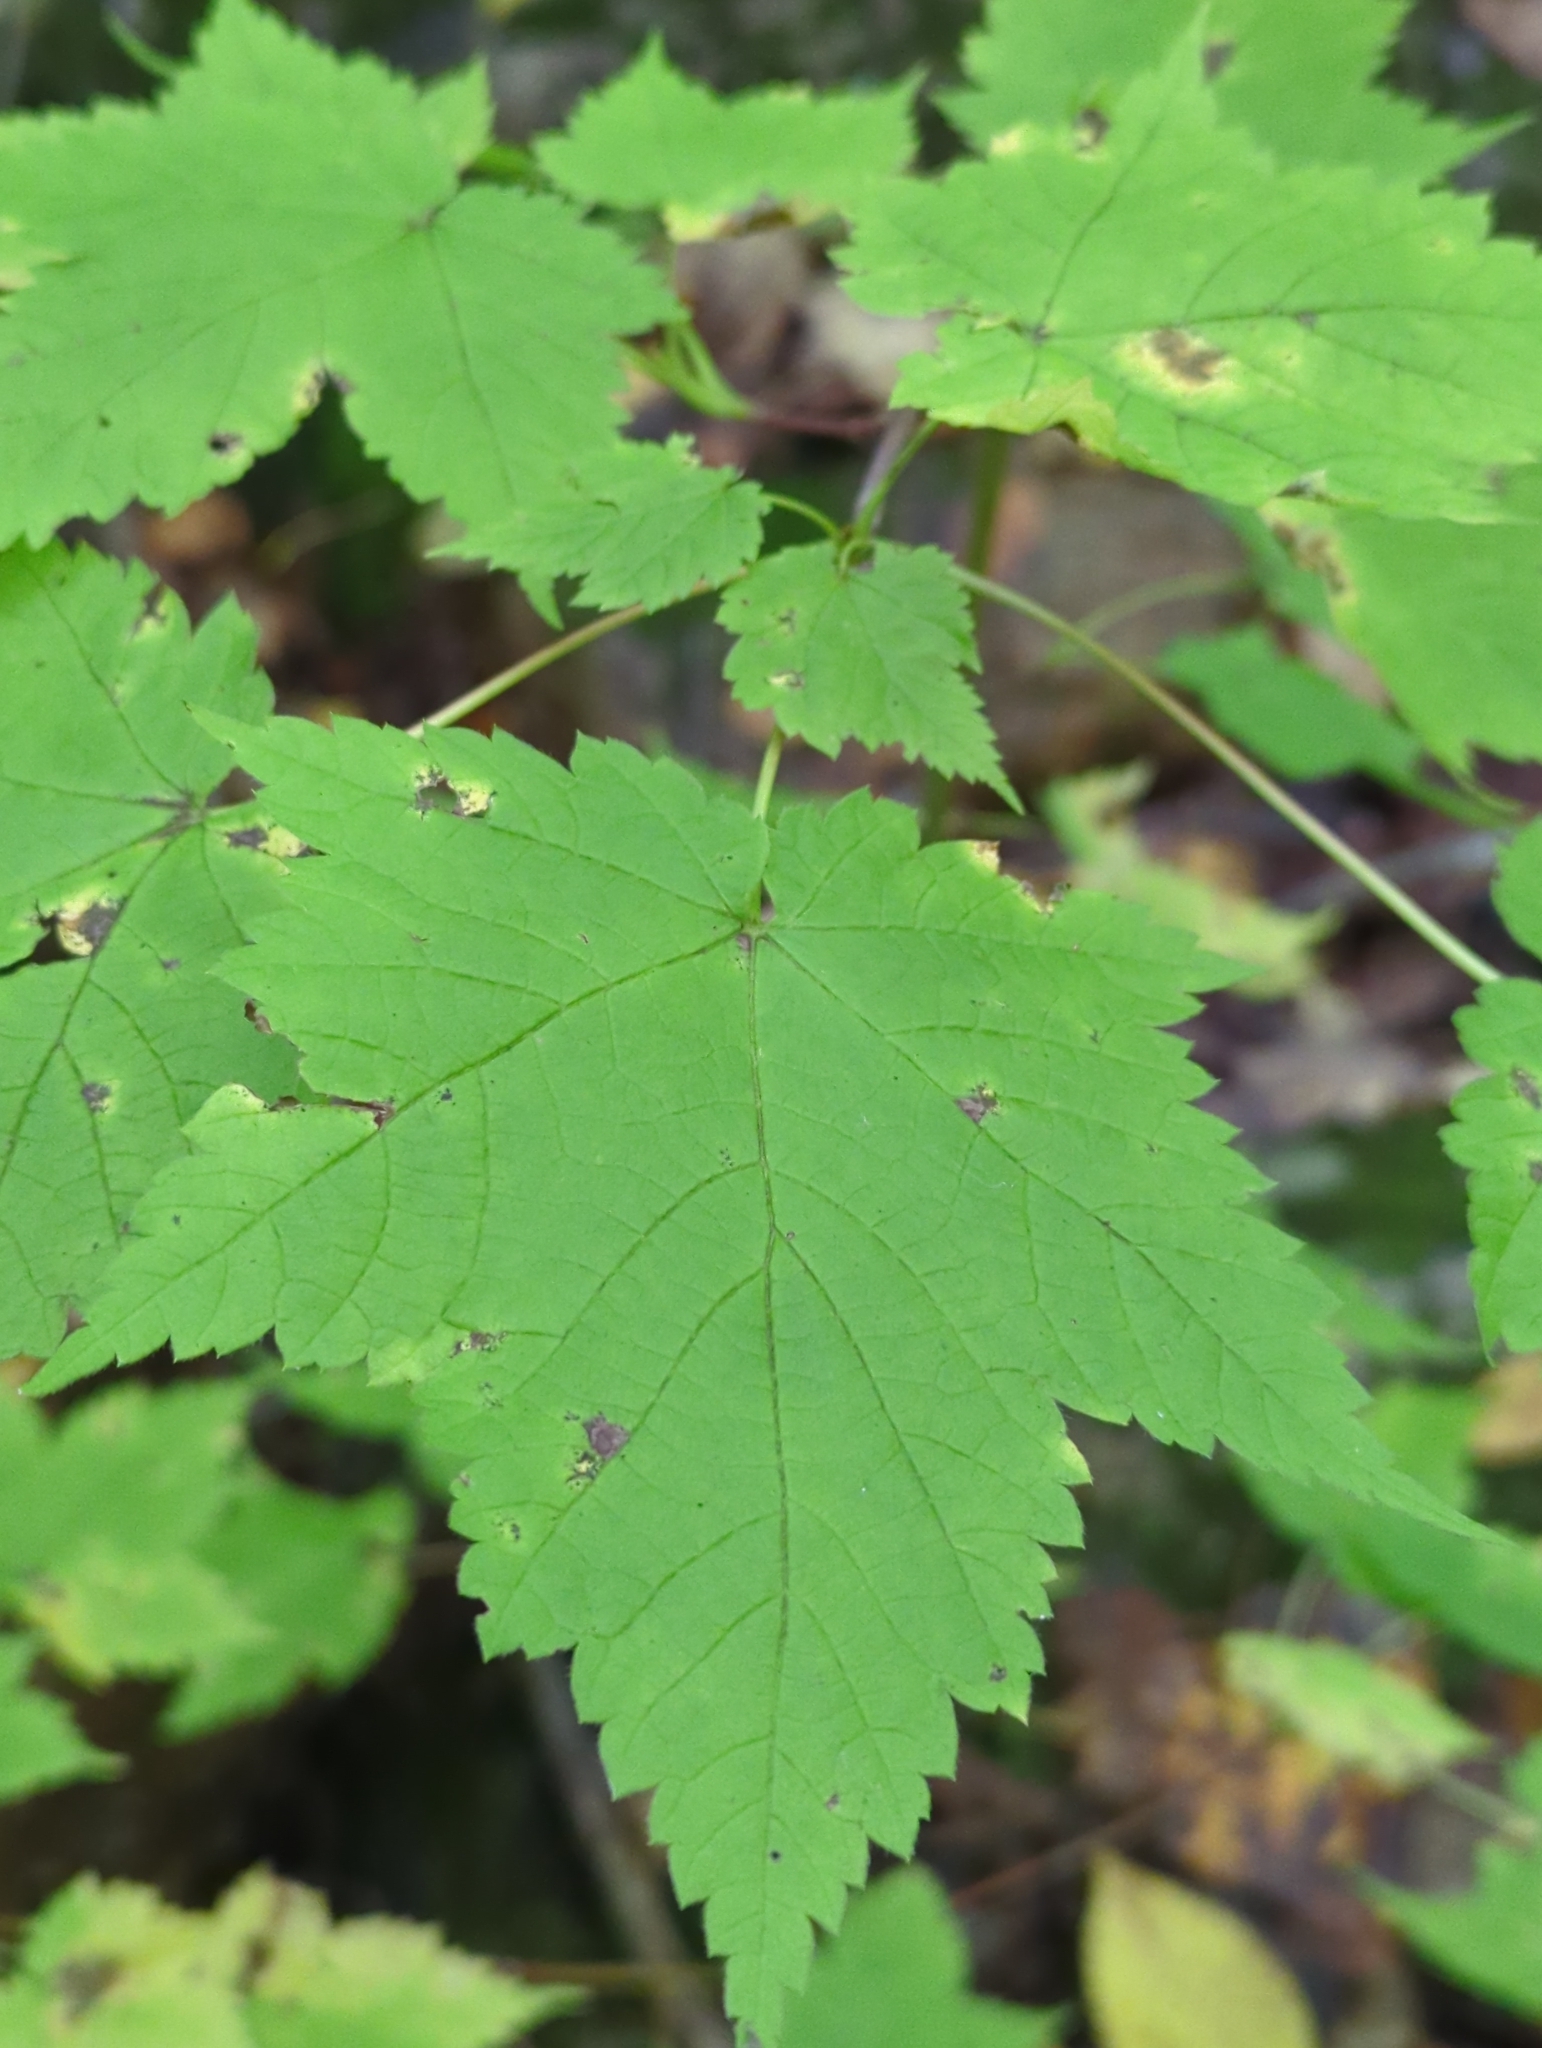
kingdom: Plantae
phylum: Tracheophyta
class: Magnoliopsida
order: Sapindales
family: Sapindaceae
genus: Acer
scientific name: Acer spicatum
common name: Mountain maple
